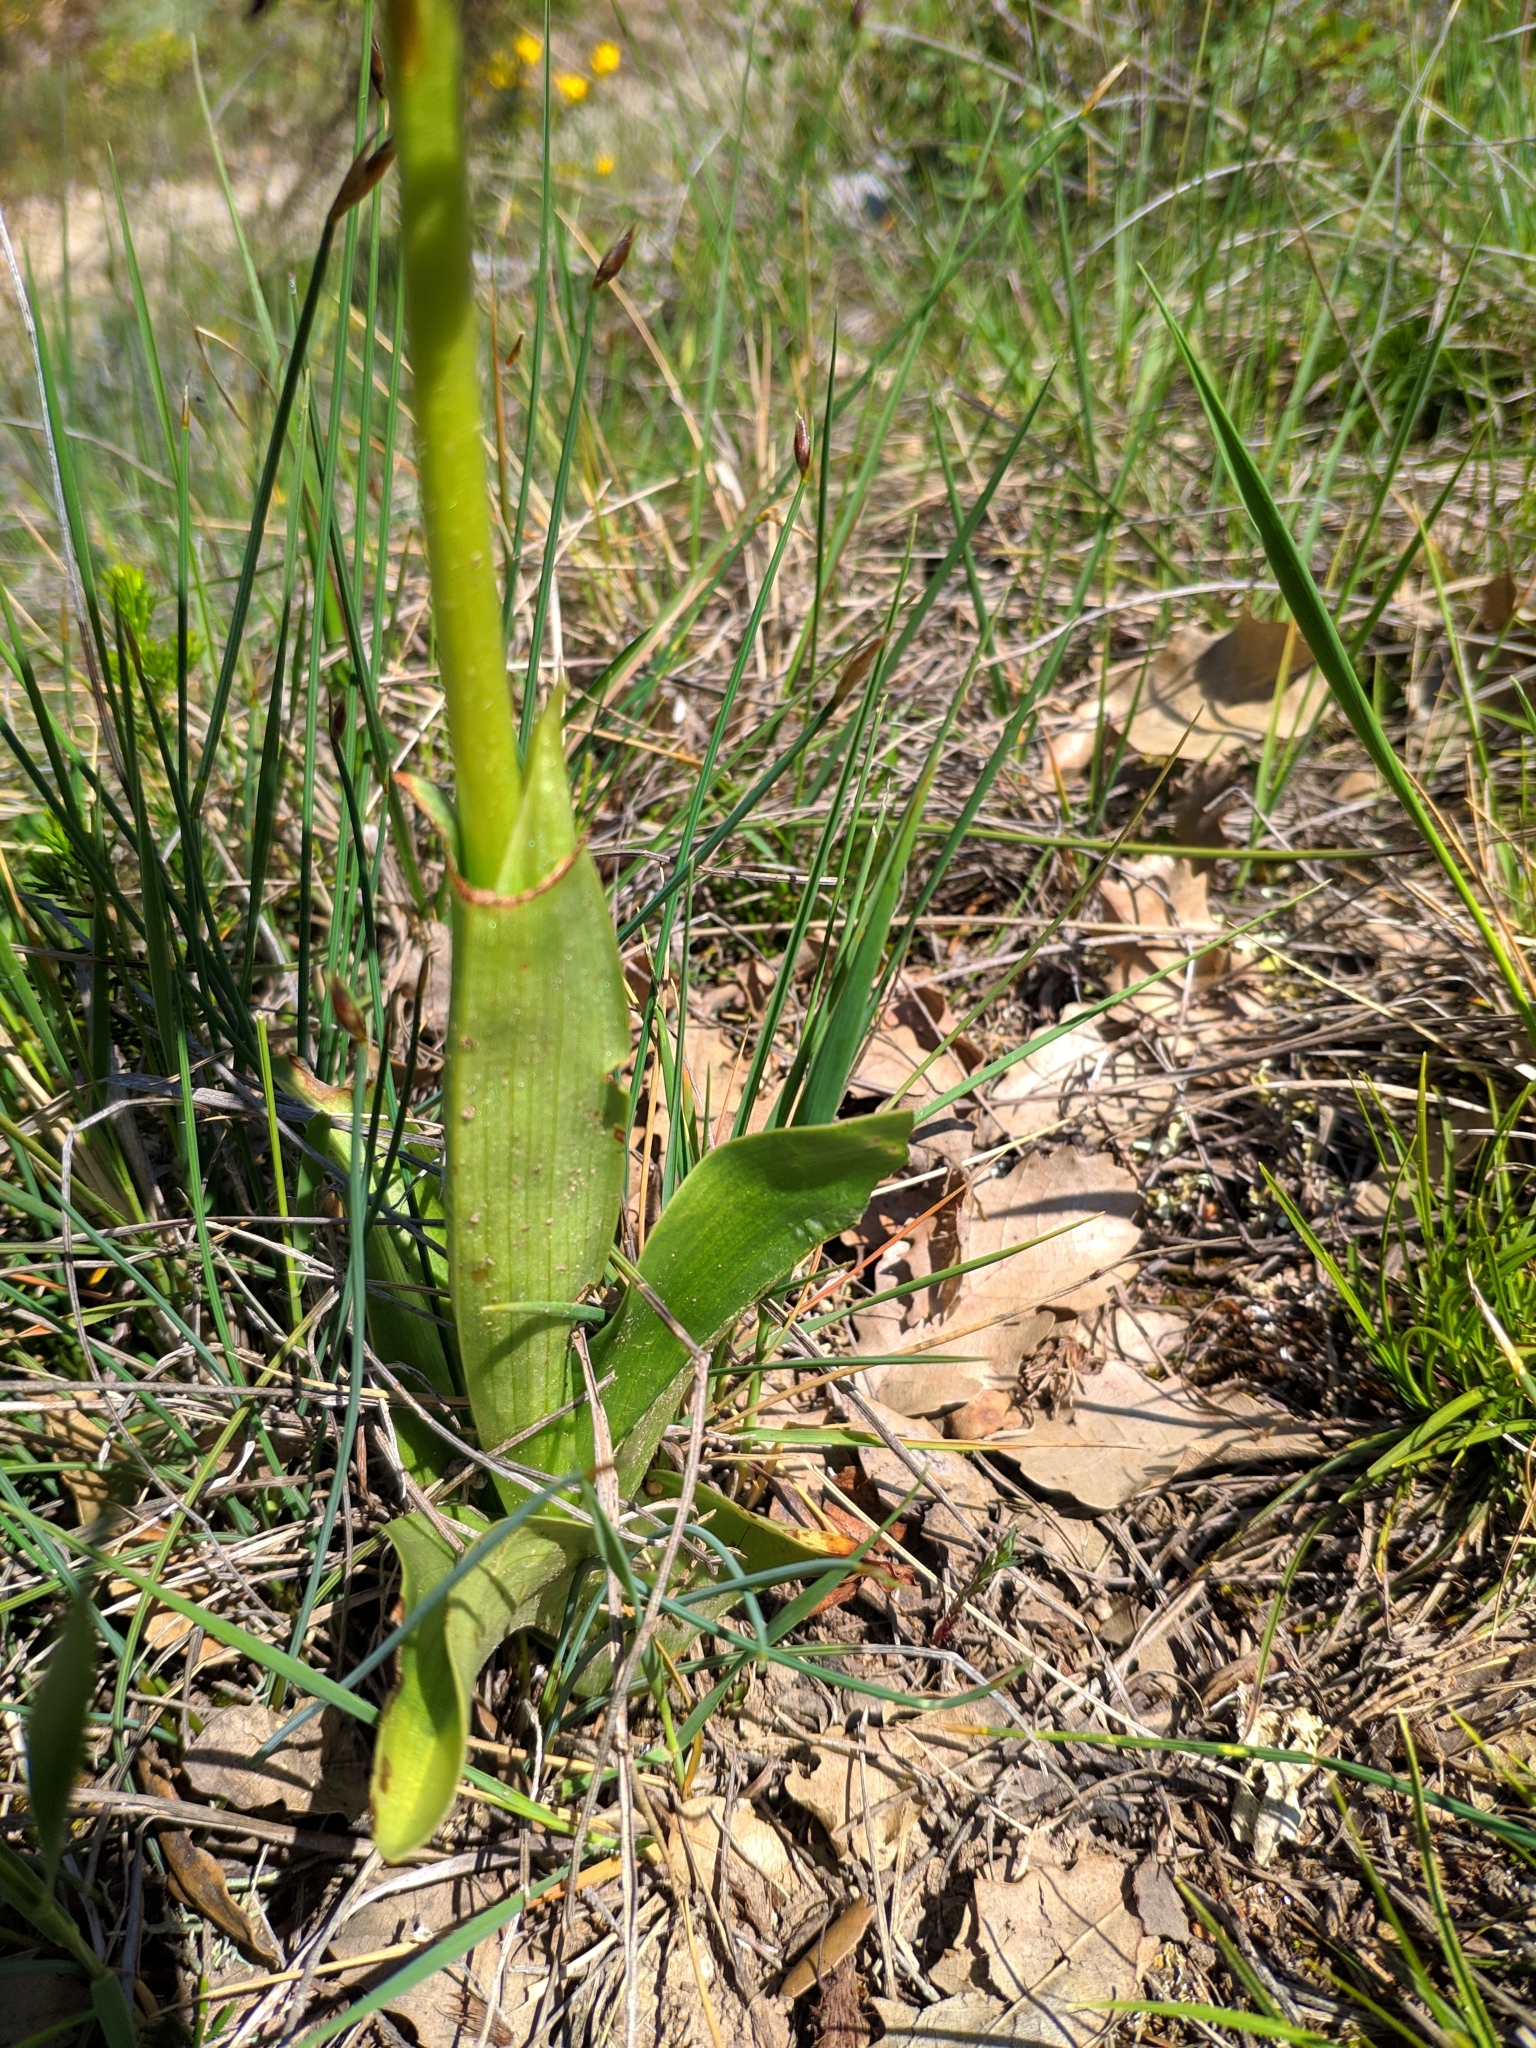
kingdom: Plantae
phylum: Tracheophyta
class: Liliopsida
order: Asparagales
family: Orchidaceae
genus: Orchis
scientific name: Orchis purpurea
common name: Lady orchid
